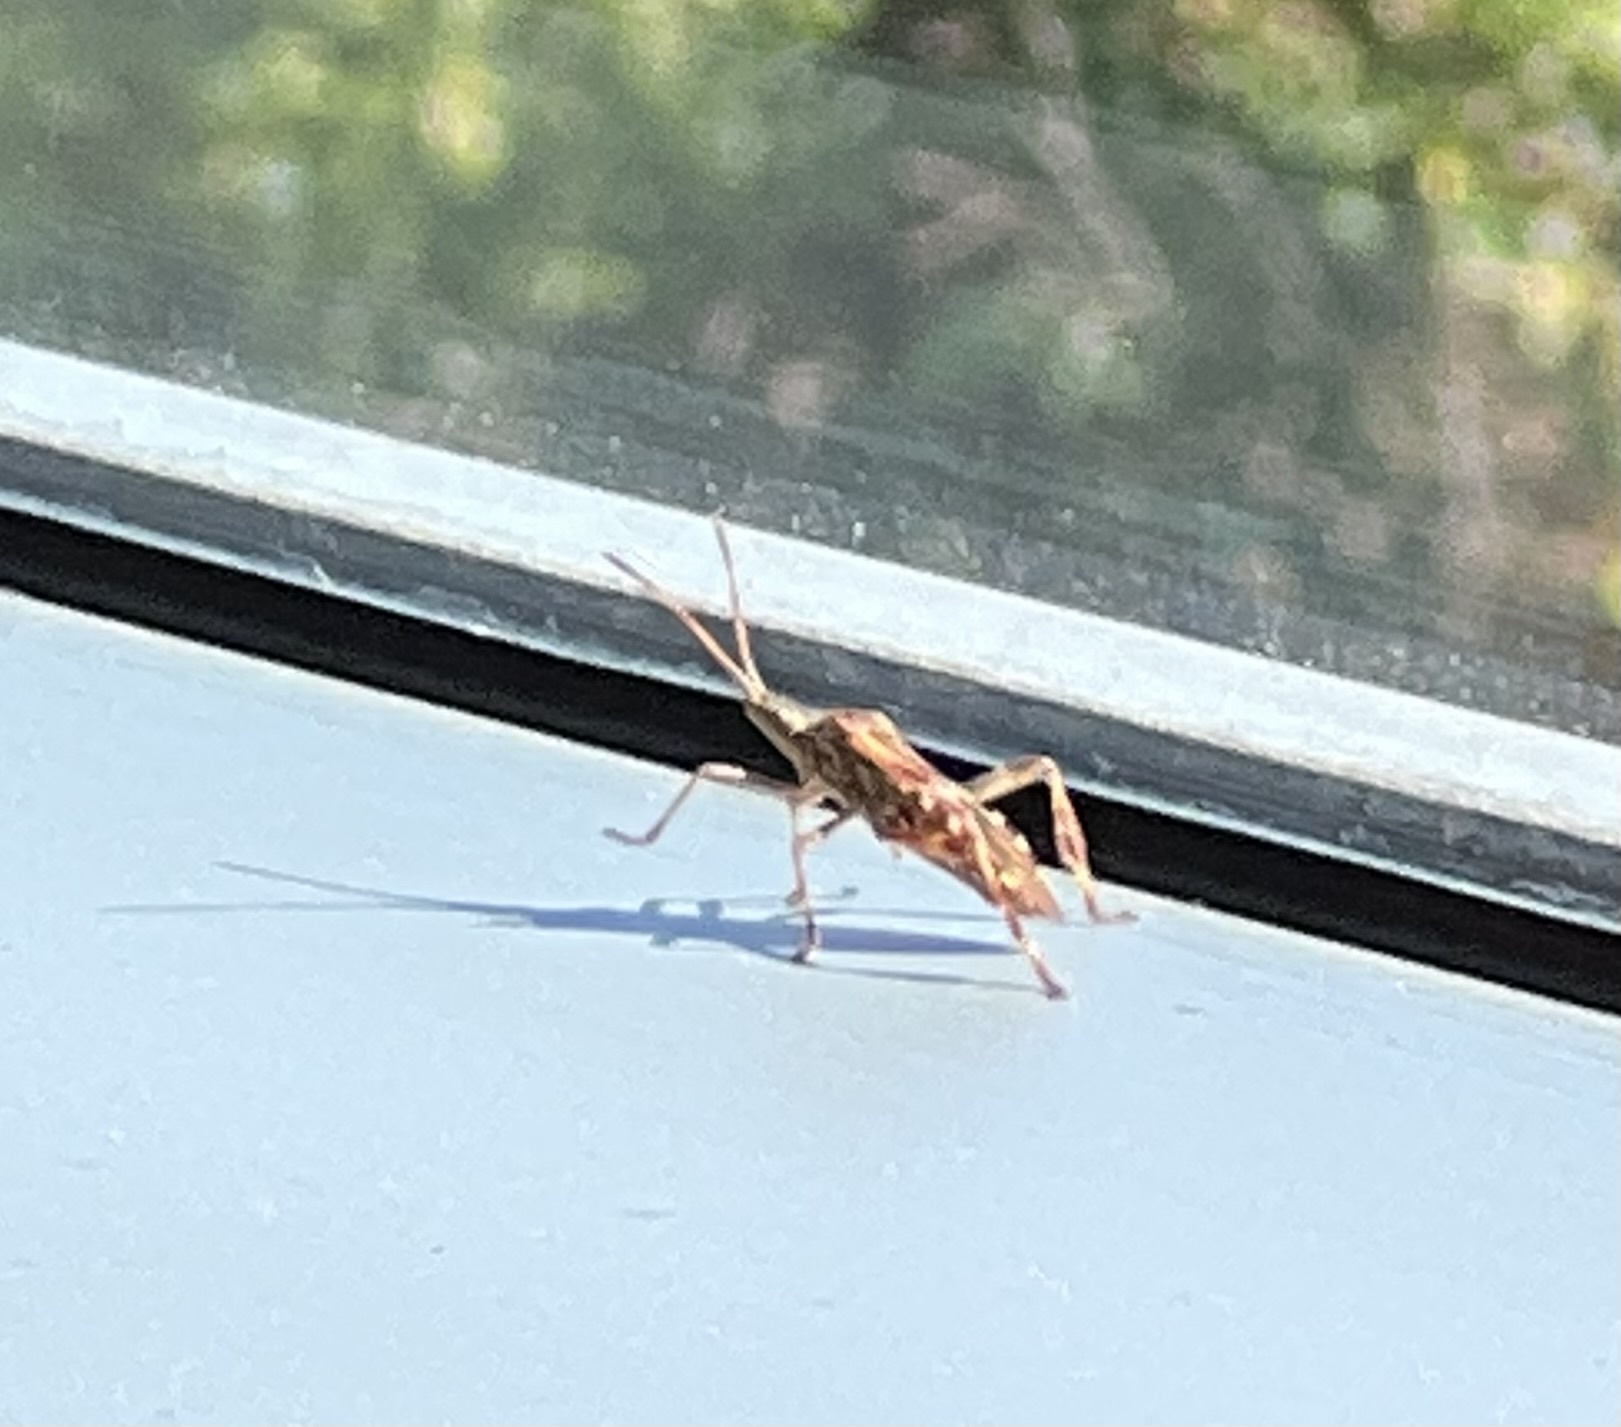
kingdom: Animalia
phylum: Arthropoda
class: Insecta
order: Hemiptera
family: Coreidae
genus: Leptoglossus
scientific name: Leptoglossus occidentalis
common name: Western conifer-seed bug
